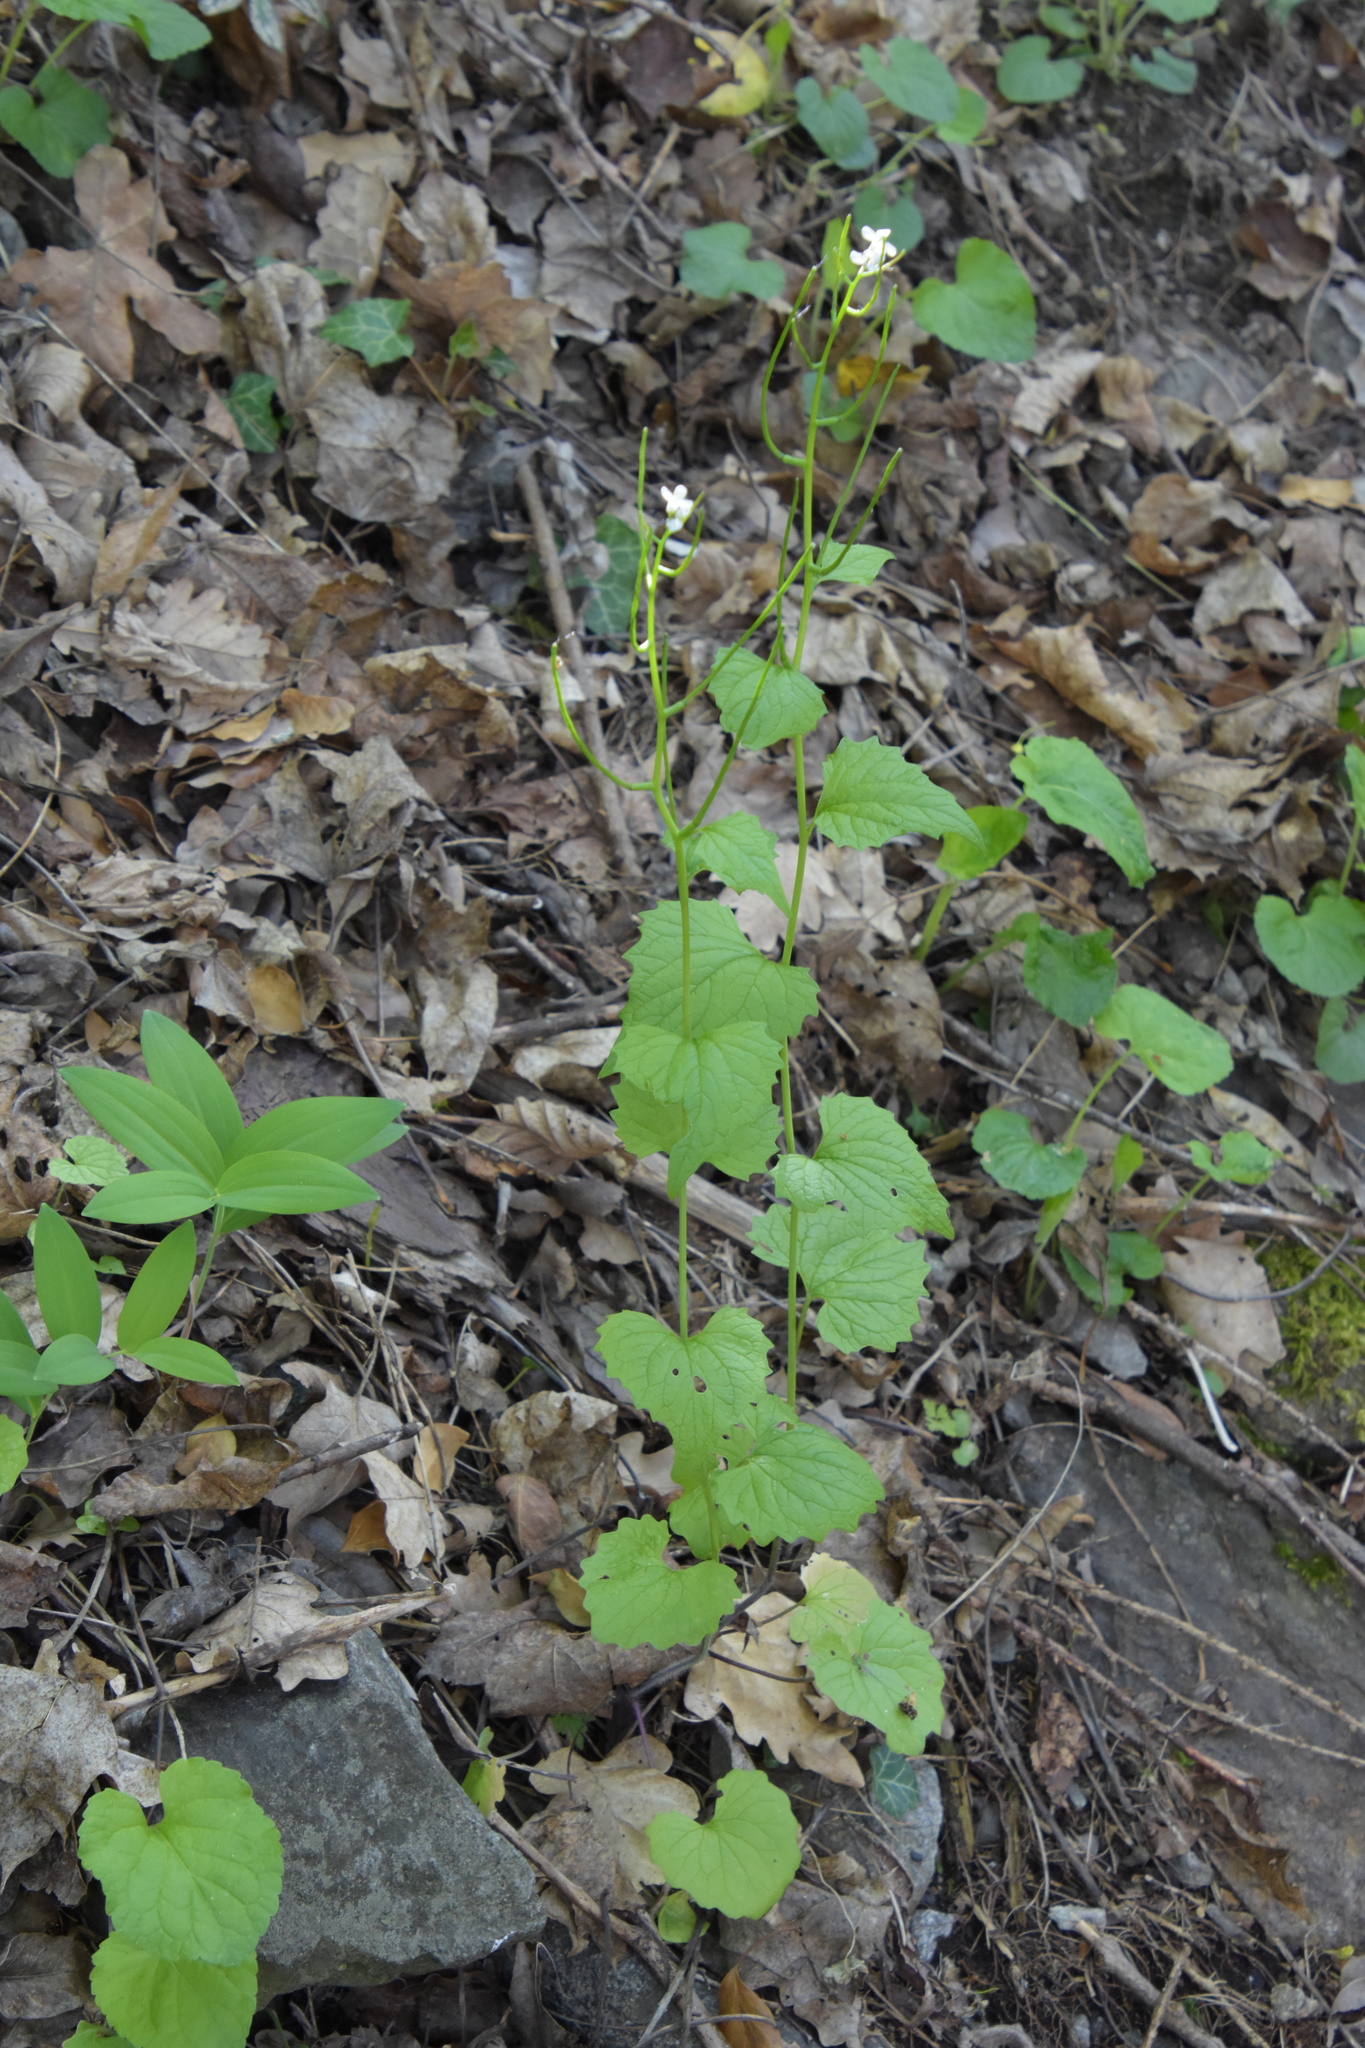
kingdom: Plantae
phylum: Tracheophyta
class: Magnoliopsida
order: Brassicales
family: Brassicaceae
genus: Alliaria
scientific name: Alliaria petiolata
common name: Garlic mustard
